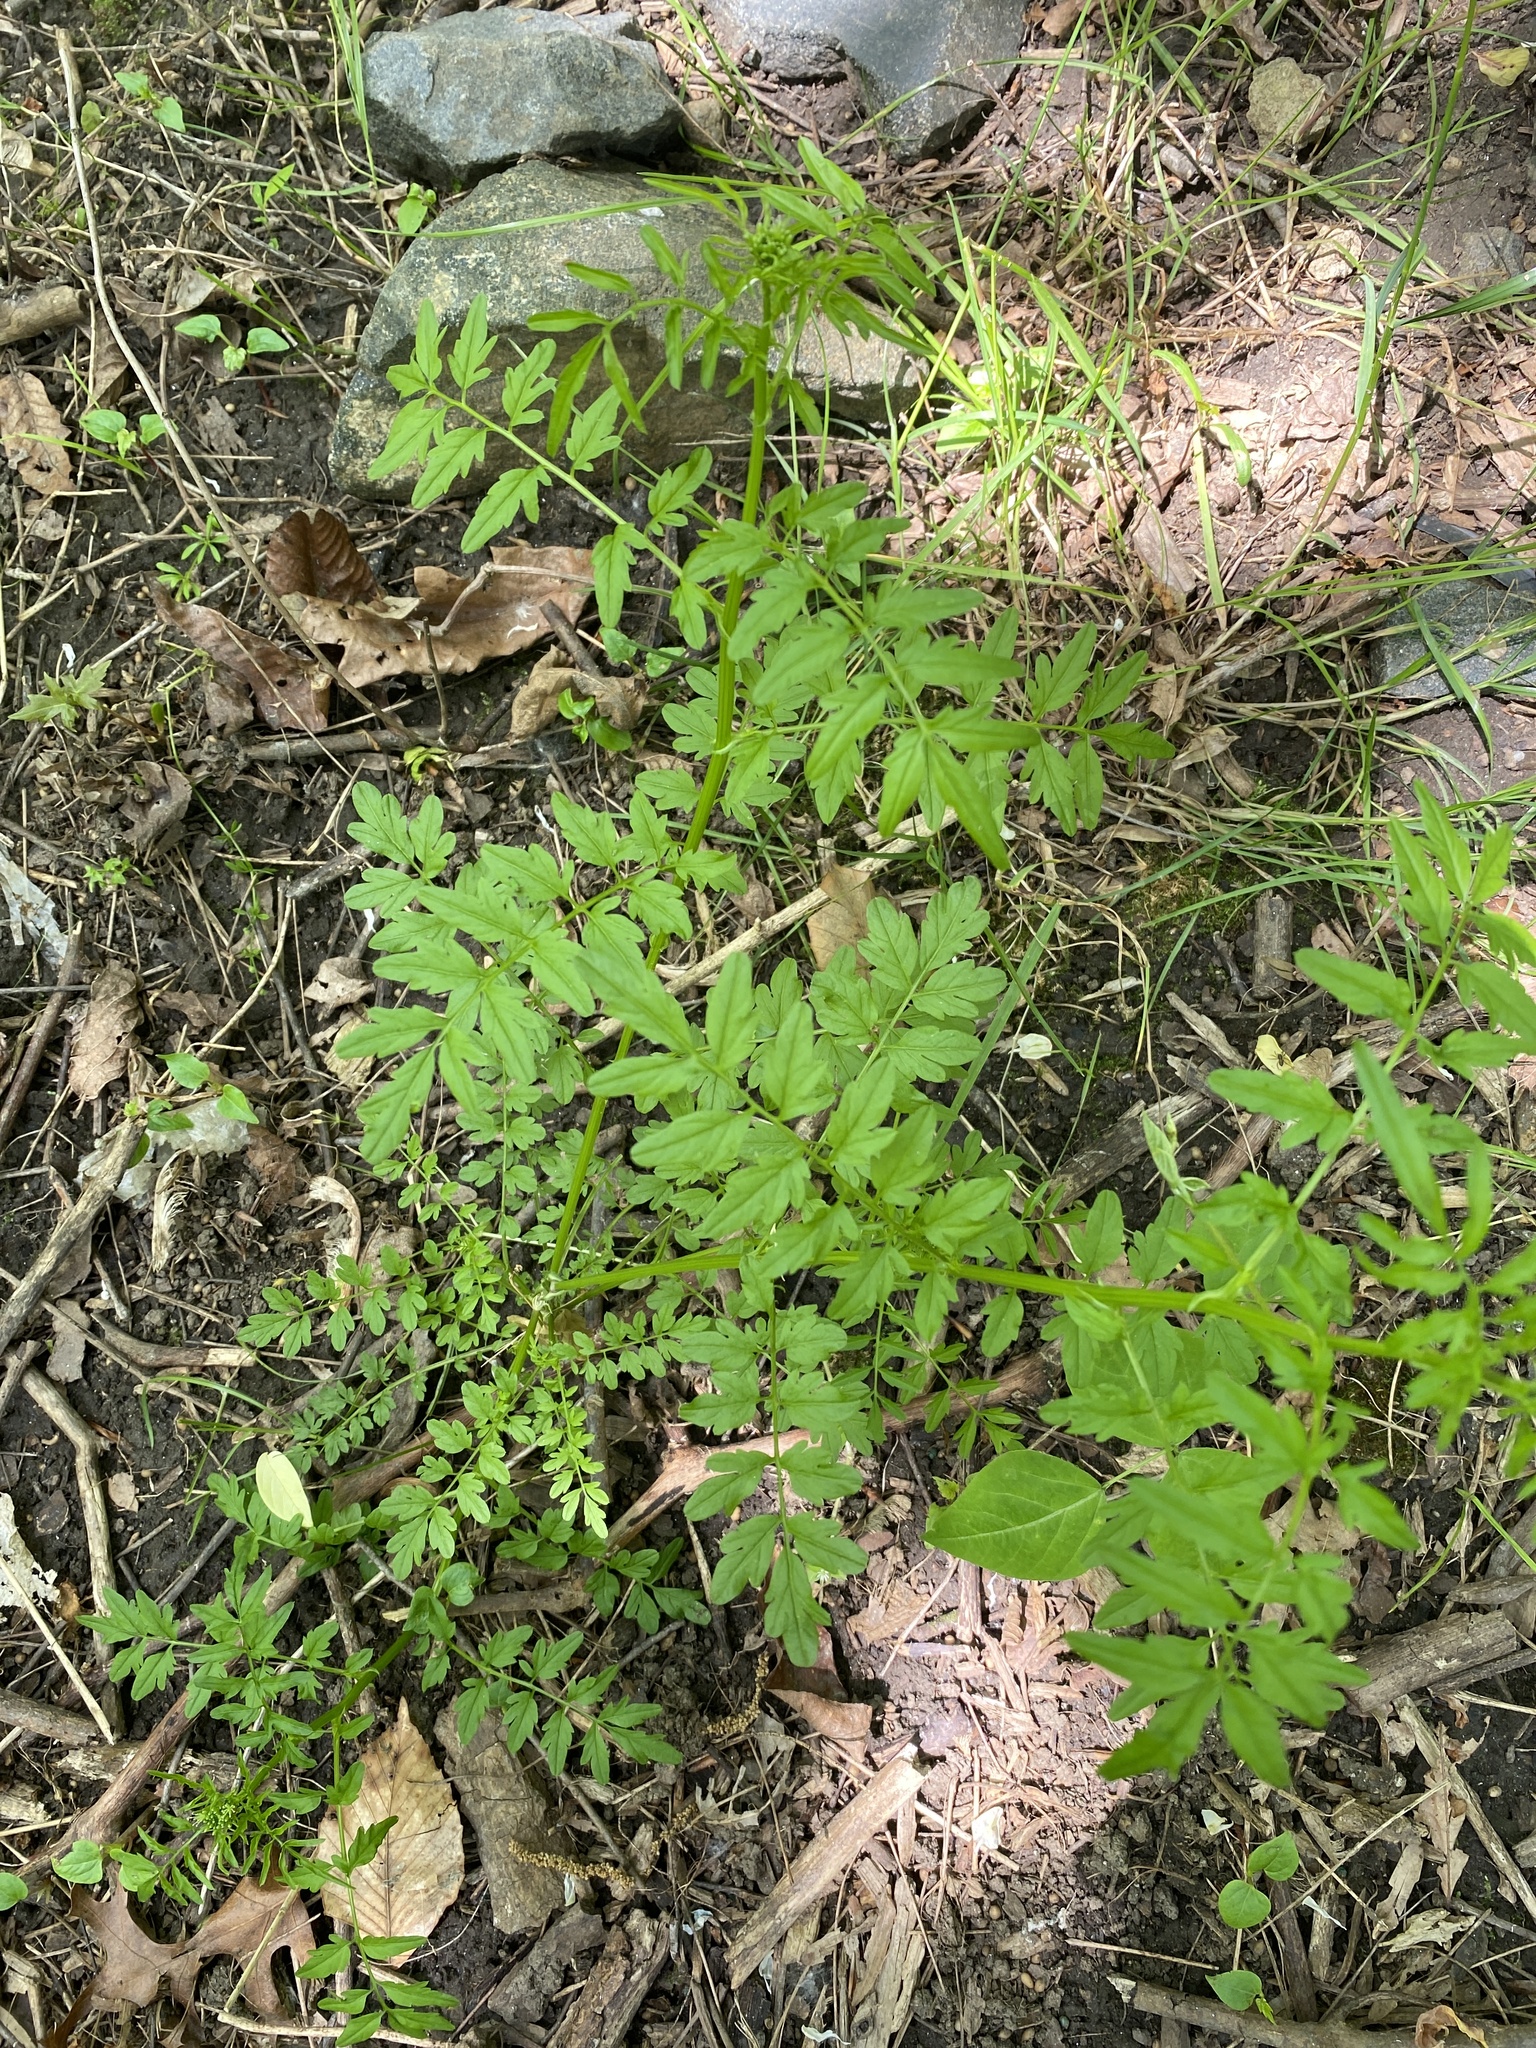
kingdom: Plantae
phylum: Tracheophyta
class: Magnoliopsida
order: Brassicales
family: Brassicaceae
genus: Cardamine
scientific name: Cardamine impatiens
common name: Narrow-leaved bitter-cress
